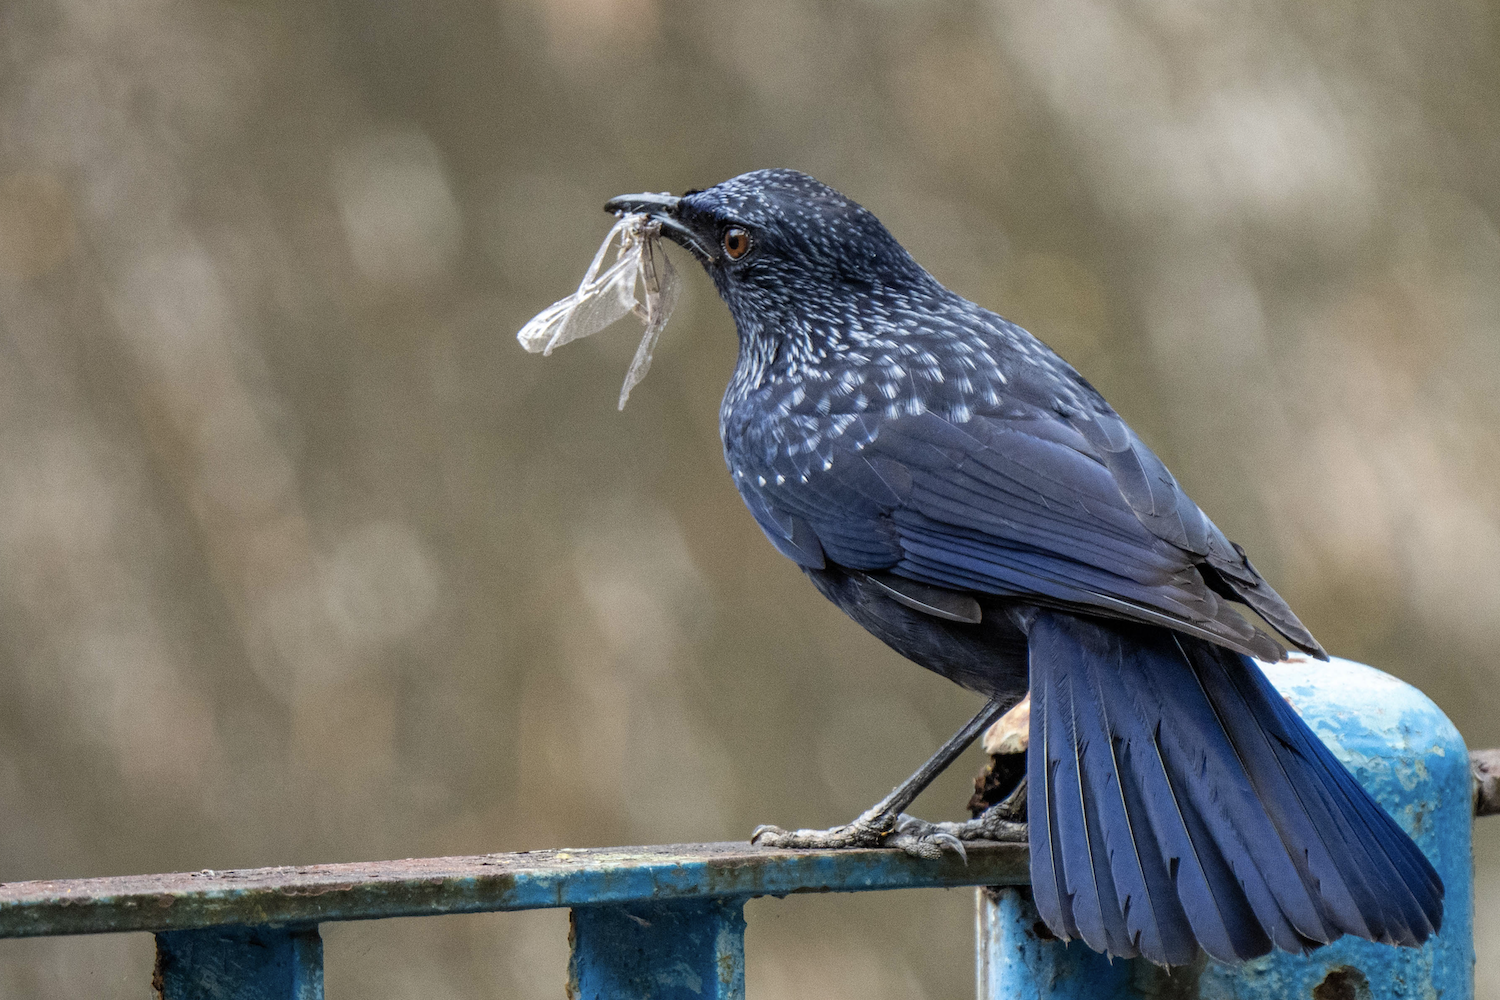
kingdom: Animalia
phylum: Chordata
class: Aves
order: Passeriformes
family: Muscicapidae
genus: Myophonus
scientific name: Myophonus caeruleus
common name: Blue whistling-thrush
